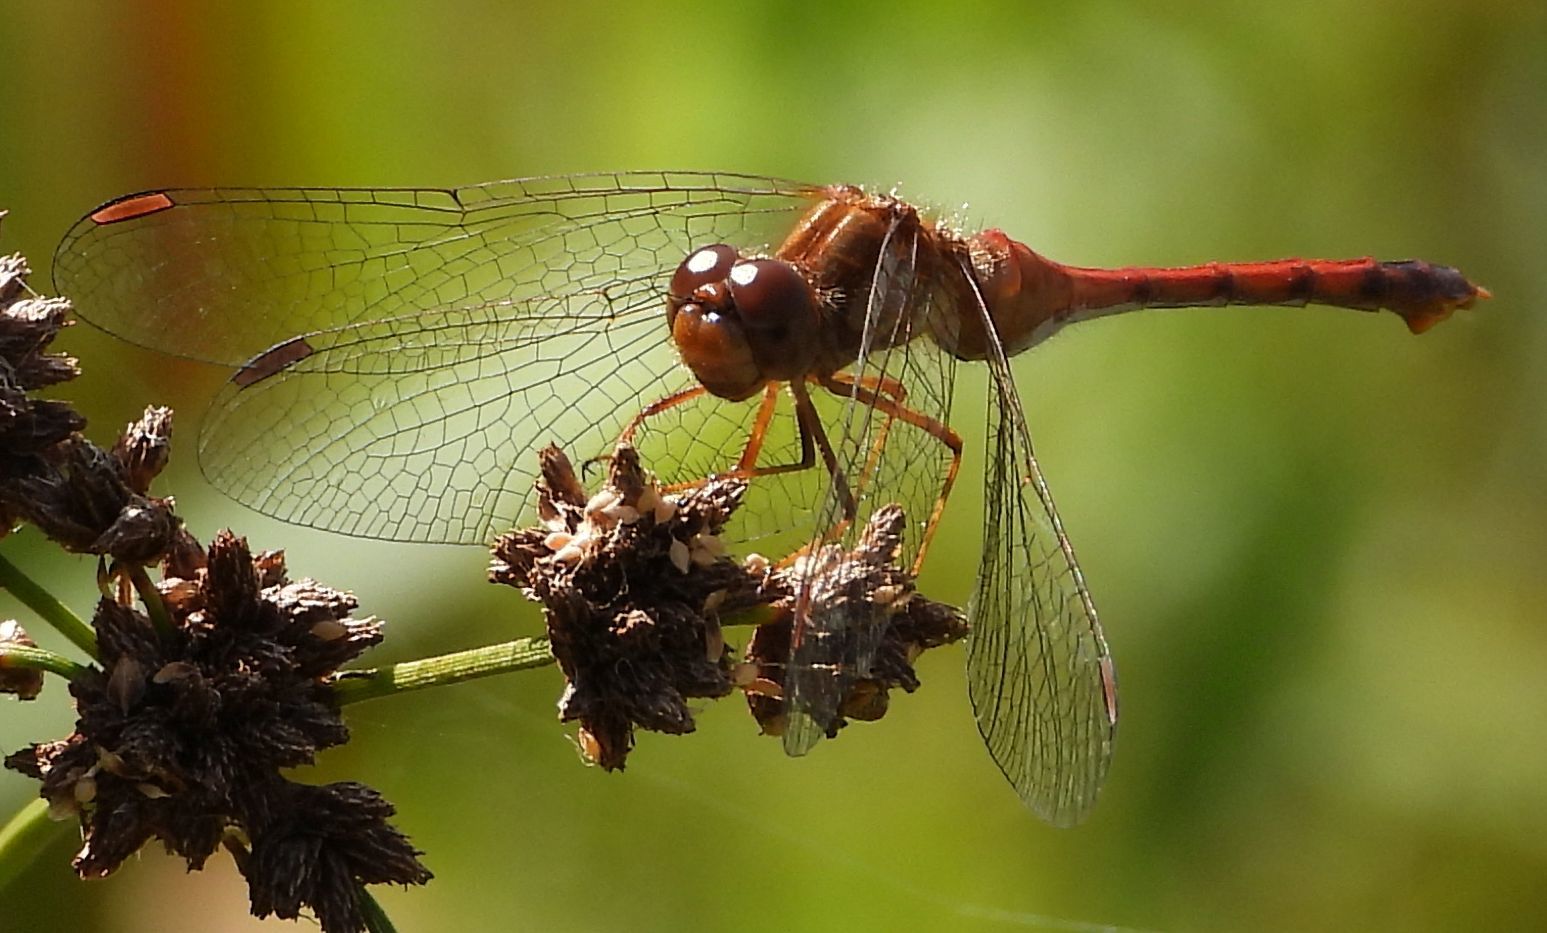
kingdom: Animalia
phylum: Arthropoda
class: Insecta
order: Odonata
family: Libellulidae
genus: Sympetrum
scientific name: Sympetrum vicinum
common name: Autumn meadowhawk
